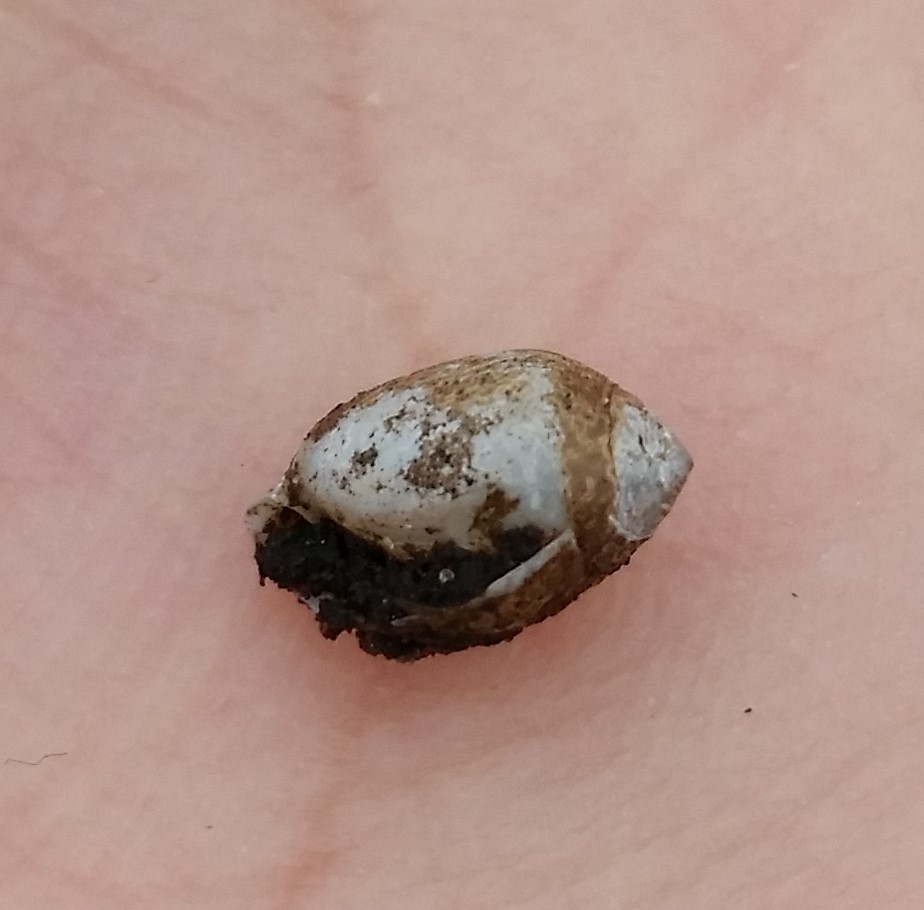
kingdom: Animalia
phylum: Mollusca
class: Gastropoda
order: Ellobiida
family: Ellobiidae
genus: Melampus
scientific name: Melampus bidentatus
